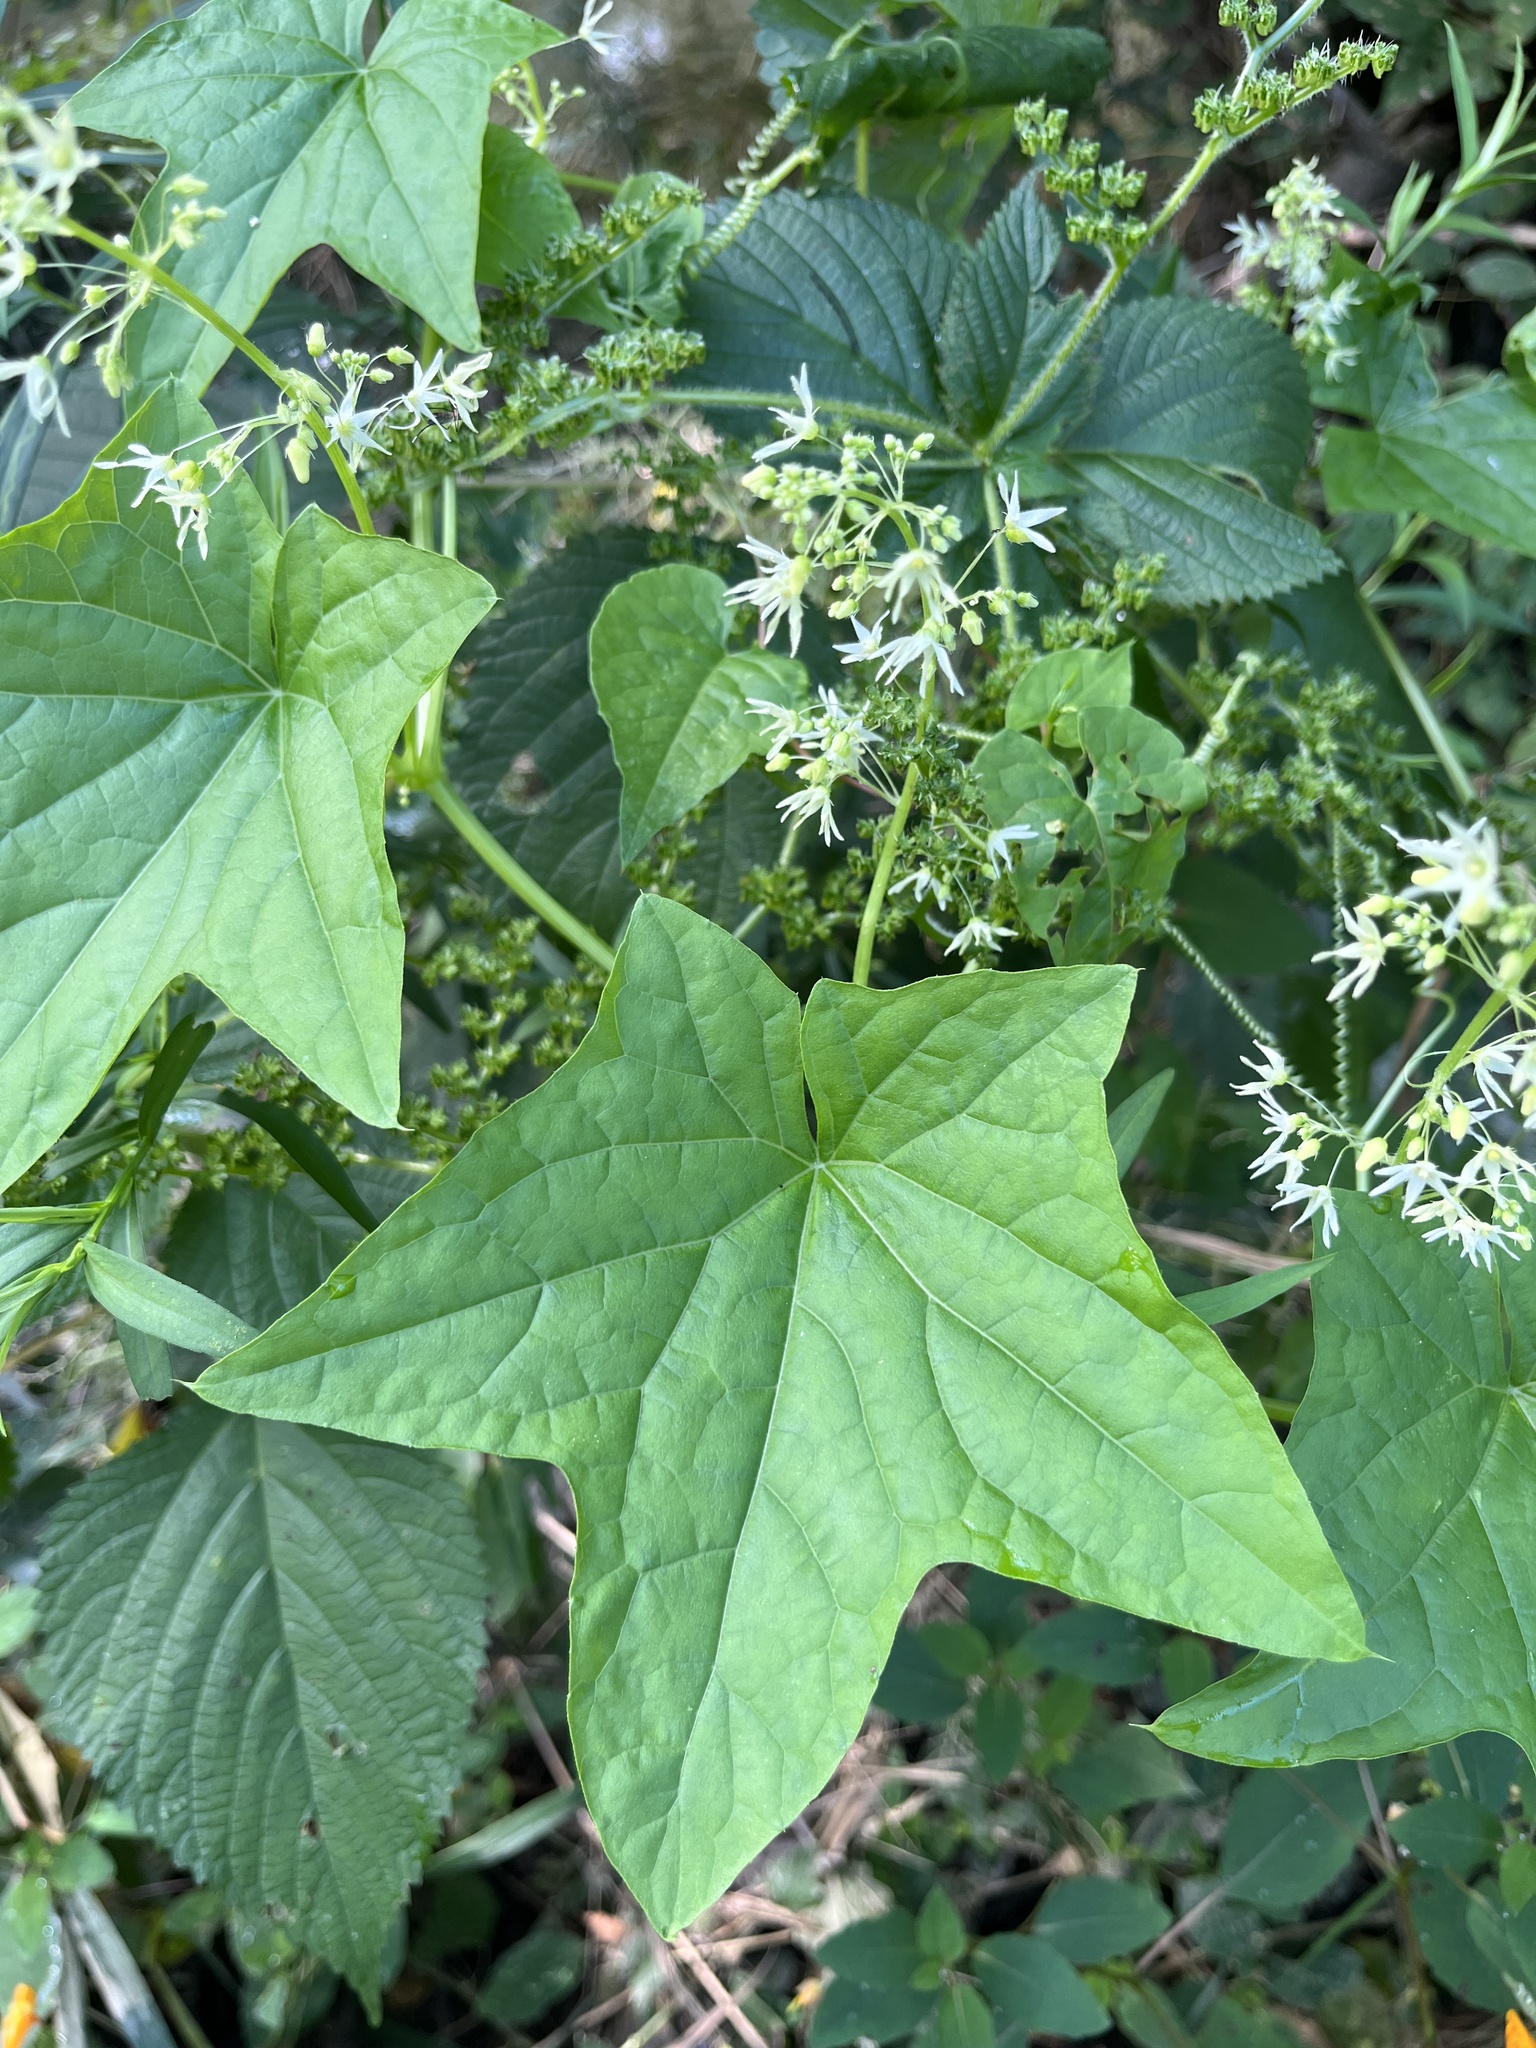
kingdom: Plantae
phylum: Tracheophyta
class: Magnoliopsida
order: Cucurbitales
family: Cucurbitaceae
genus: Echinocystis
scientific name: Echinocystis lobata
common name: Wild cucumber
